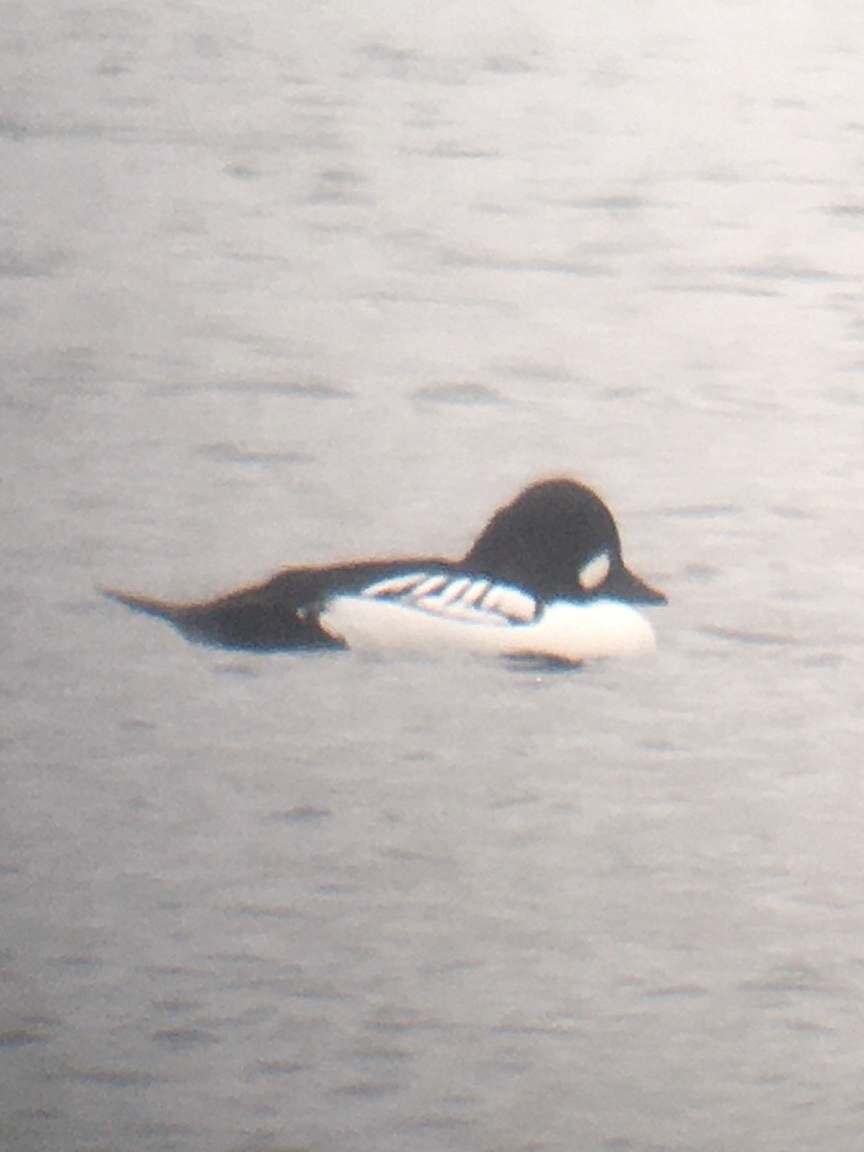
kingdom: Animalia
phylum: Chordata
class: Aves
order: Anseriformes
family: Anatidae
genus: Bucephala
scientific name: Bucephala
